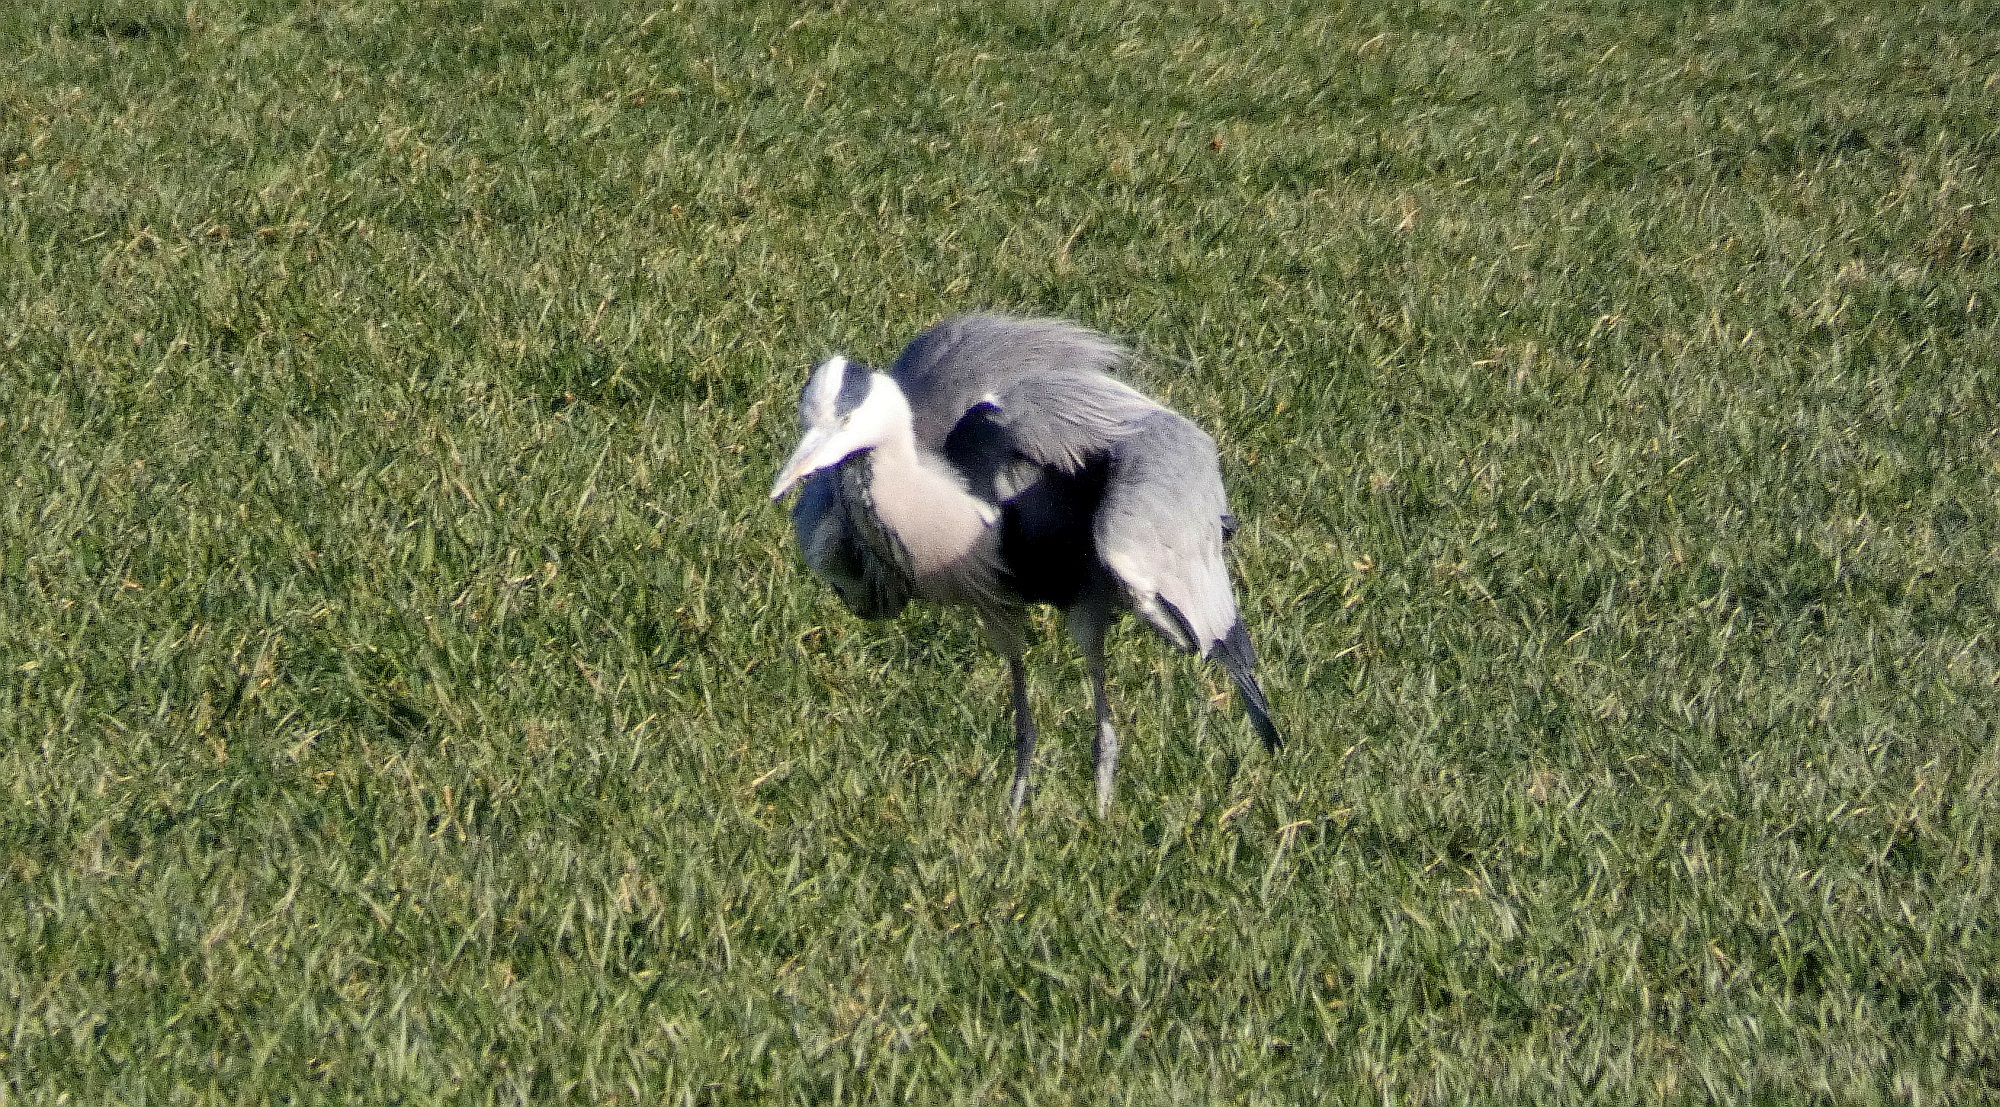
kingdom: Animalia
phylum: Chordata
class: Aves
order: Pelecaniformes
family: Ardeidae
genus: Ardea
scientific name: Ardea cinerea
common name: Grey heron
